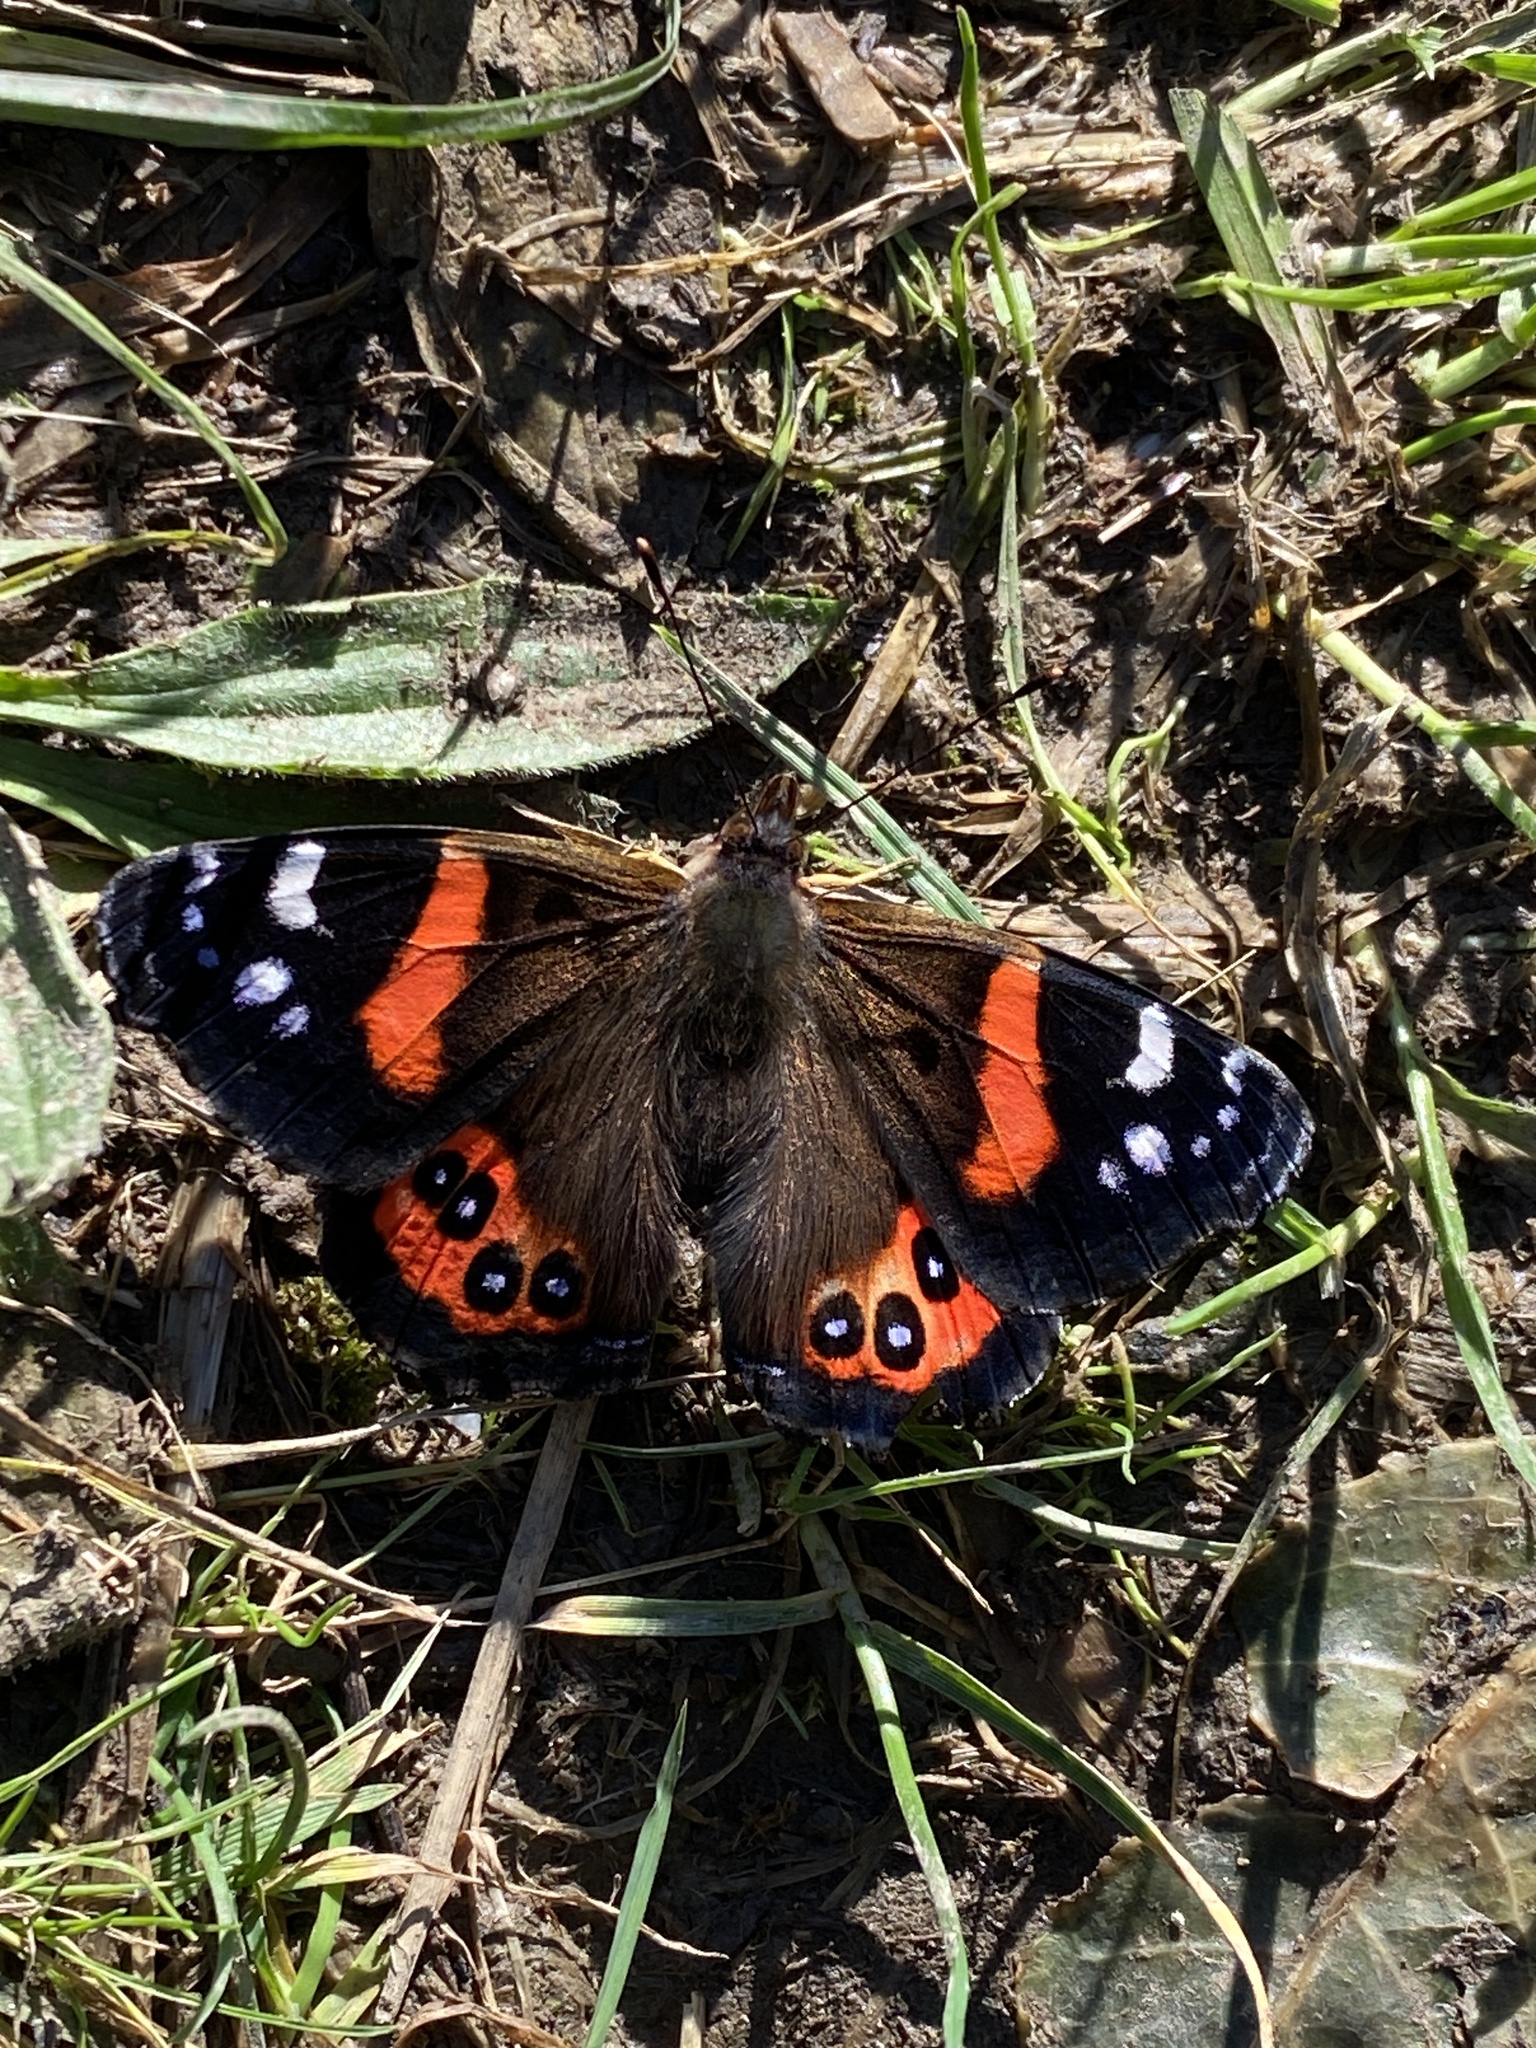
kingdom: Animalia
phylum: Arthropoda
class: Insecta
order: Lepidoptera
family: Nymphalidae
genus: Vanessa
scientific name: Vanessa gonerilla
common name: New zealand red admiral
